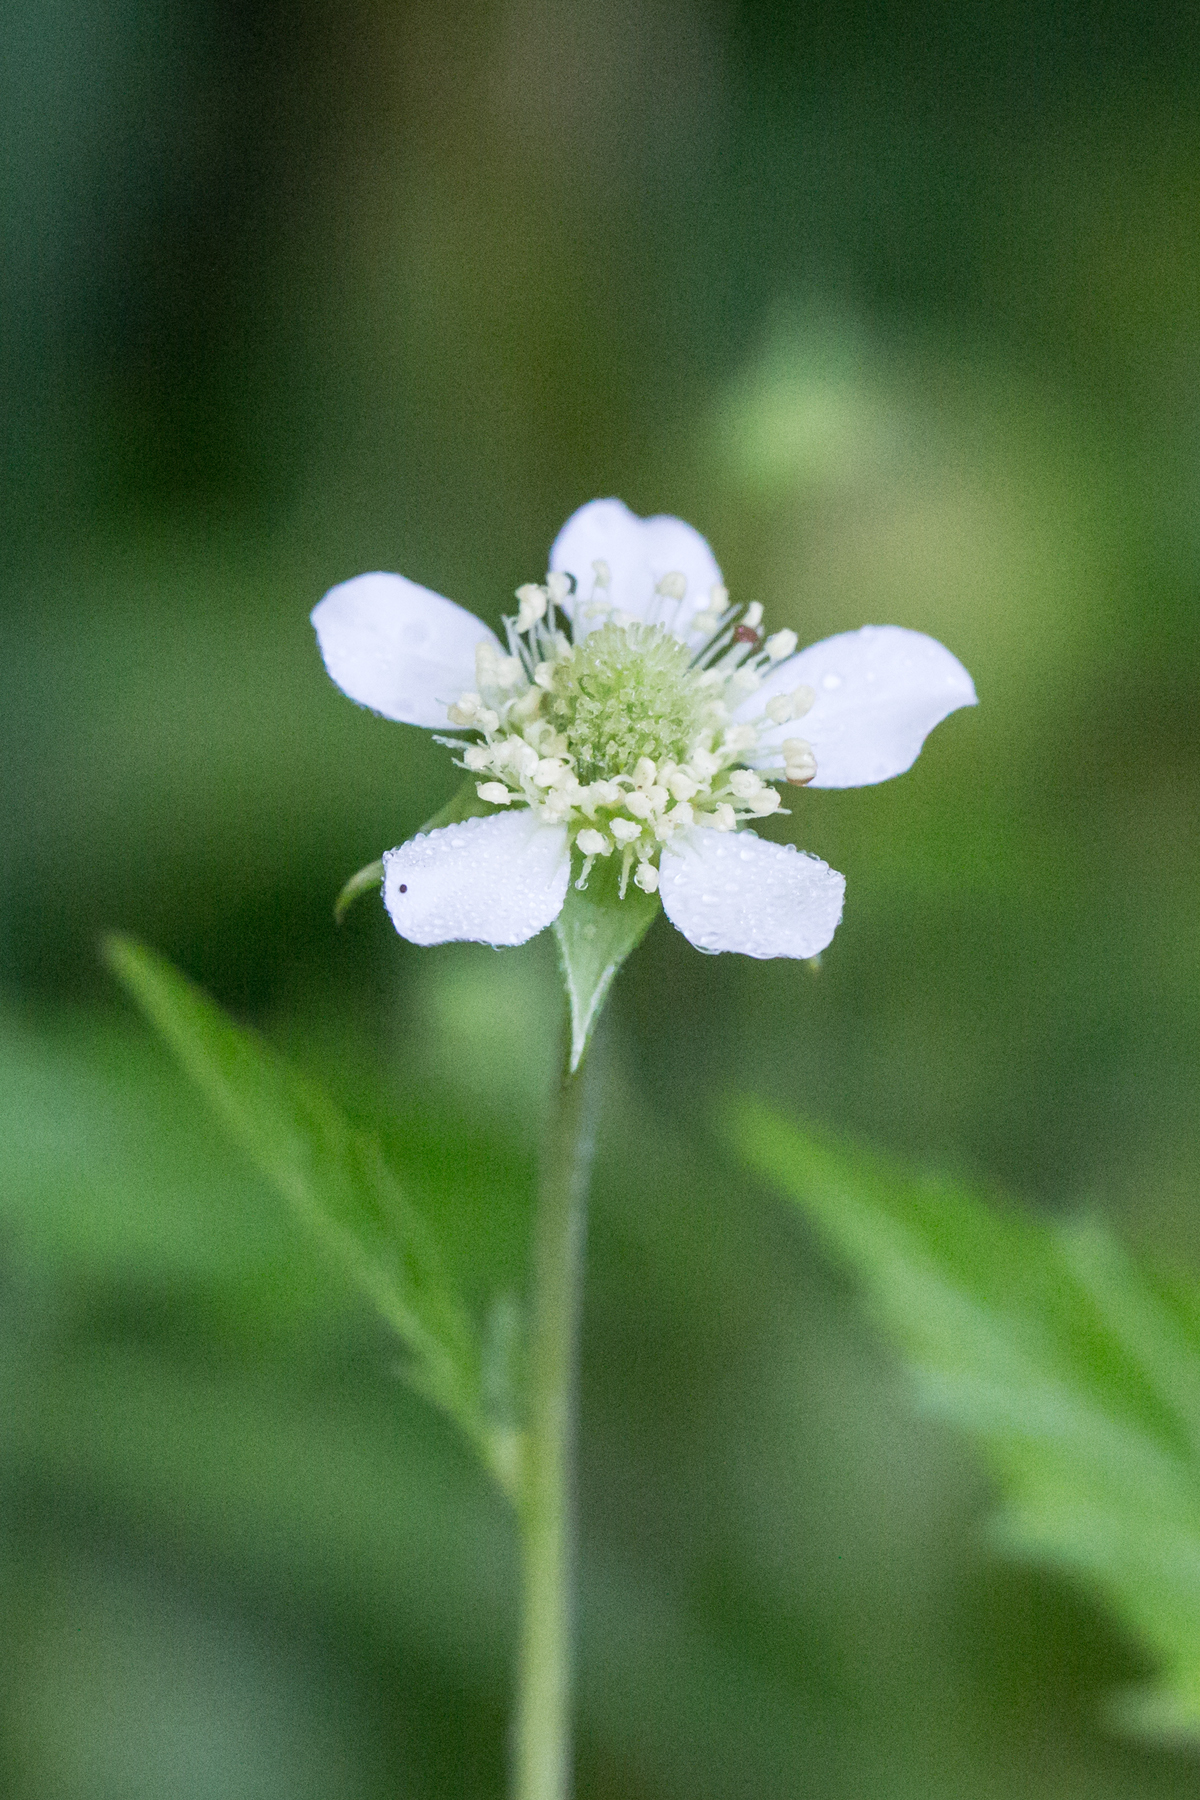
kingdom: Plantae
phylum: Tracheophyta
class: Magnoliopsida
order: Rosales
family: Rosaceae
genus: Geum
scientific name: Geum canadense
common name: White avens
